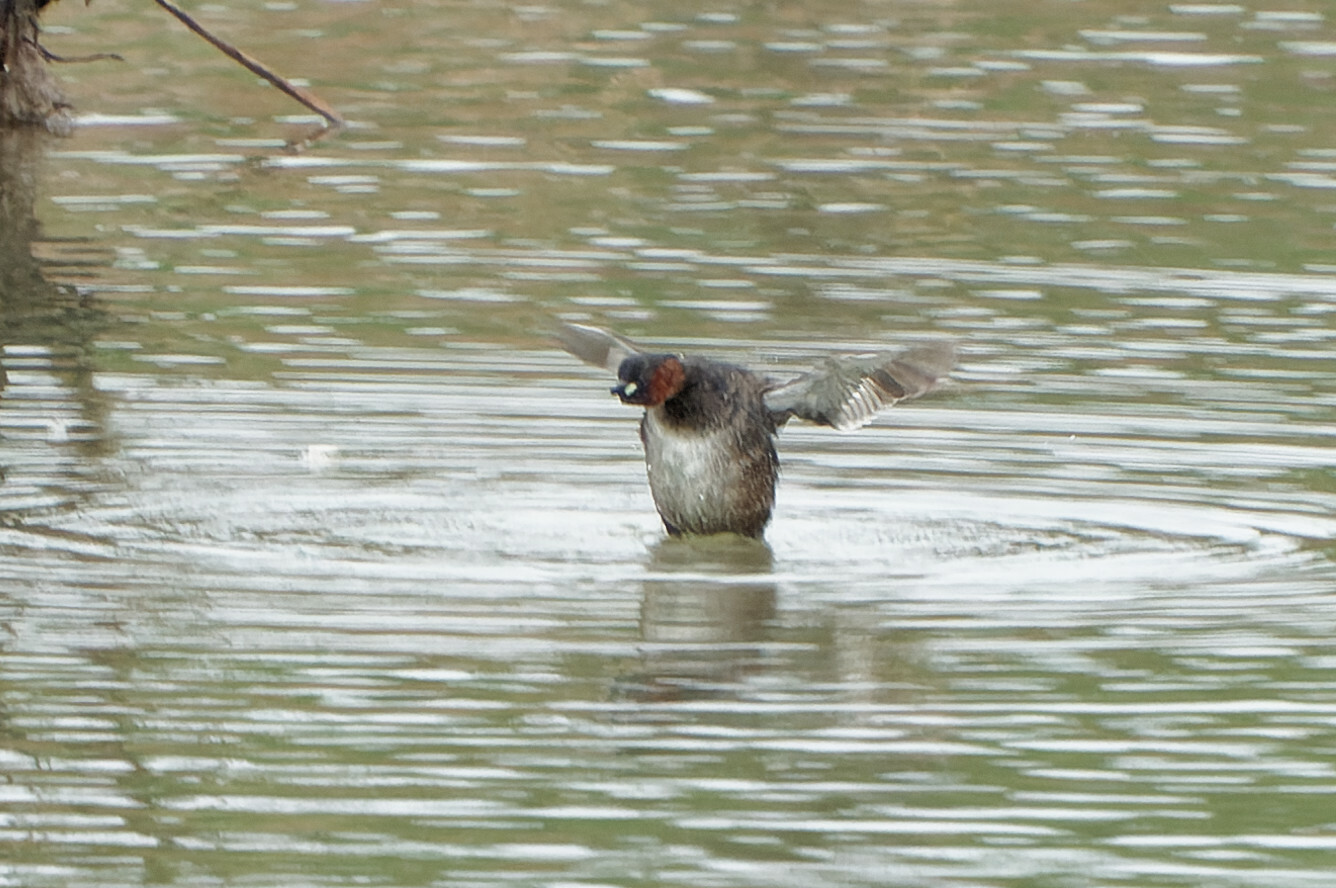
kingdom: Animalia
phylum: Chordata
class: Aves
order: Podicipediformes
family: Podicipedidae
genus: Tachybaptus
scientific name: Tachybaptus ruficollis
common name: Little grebe
